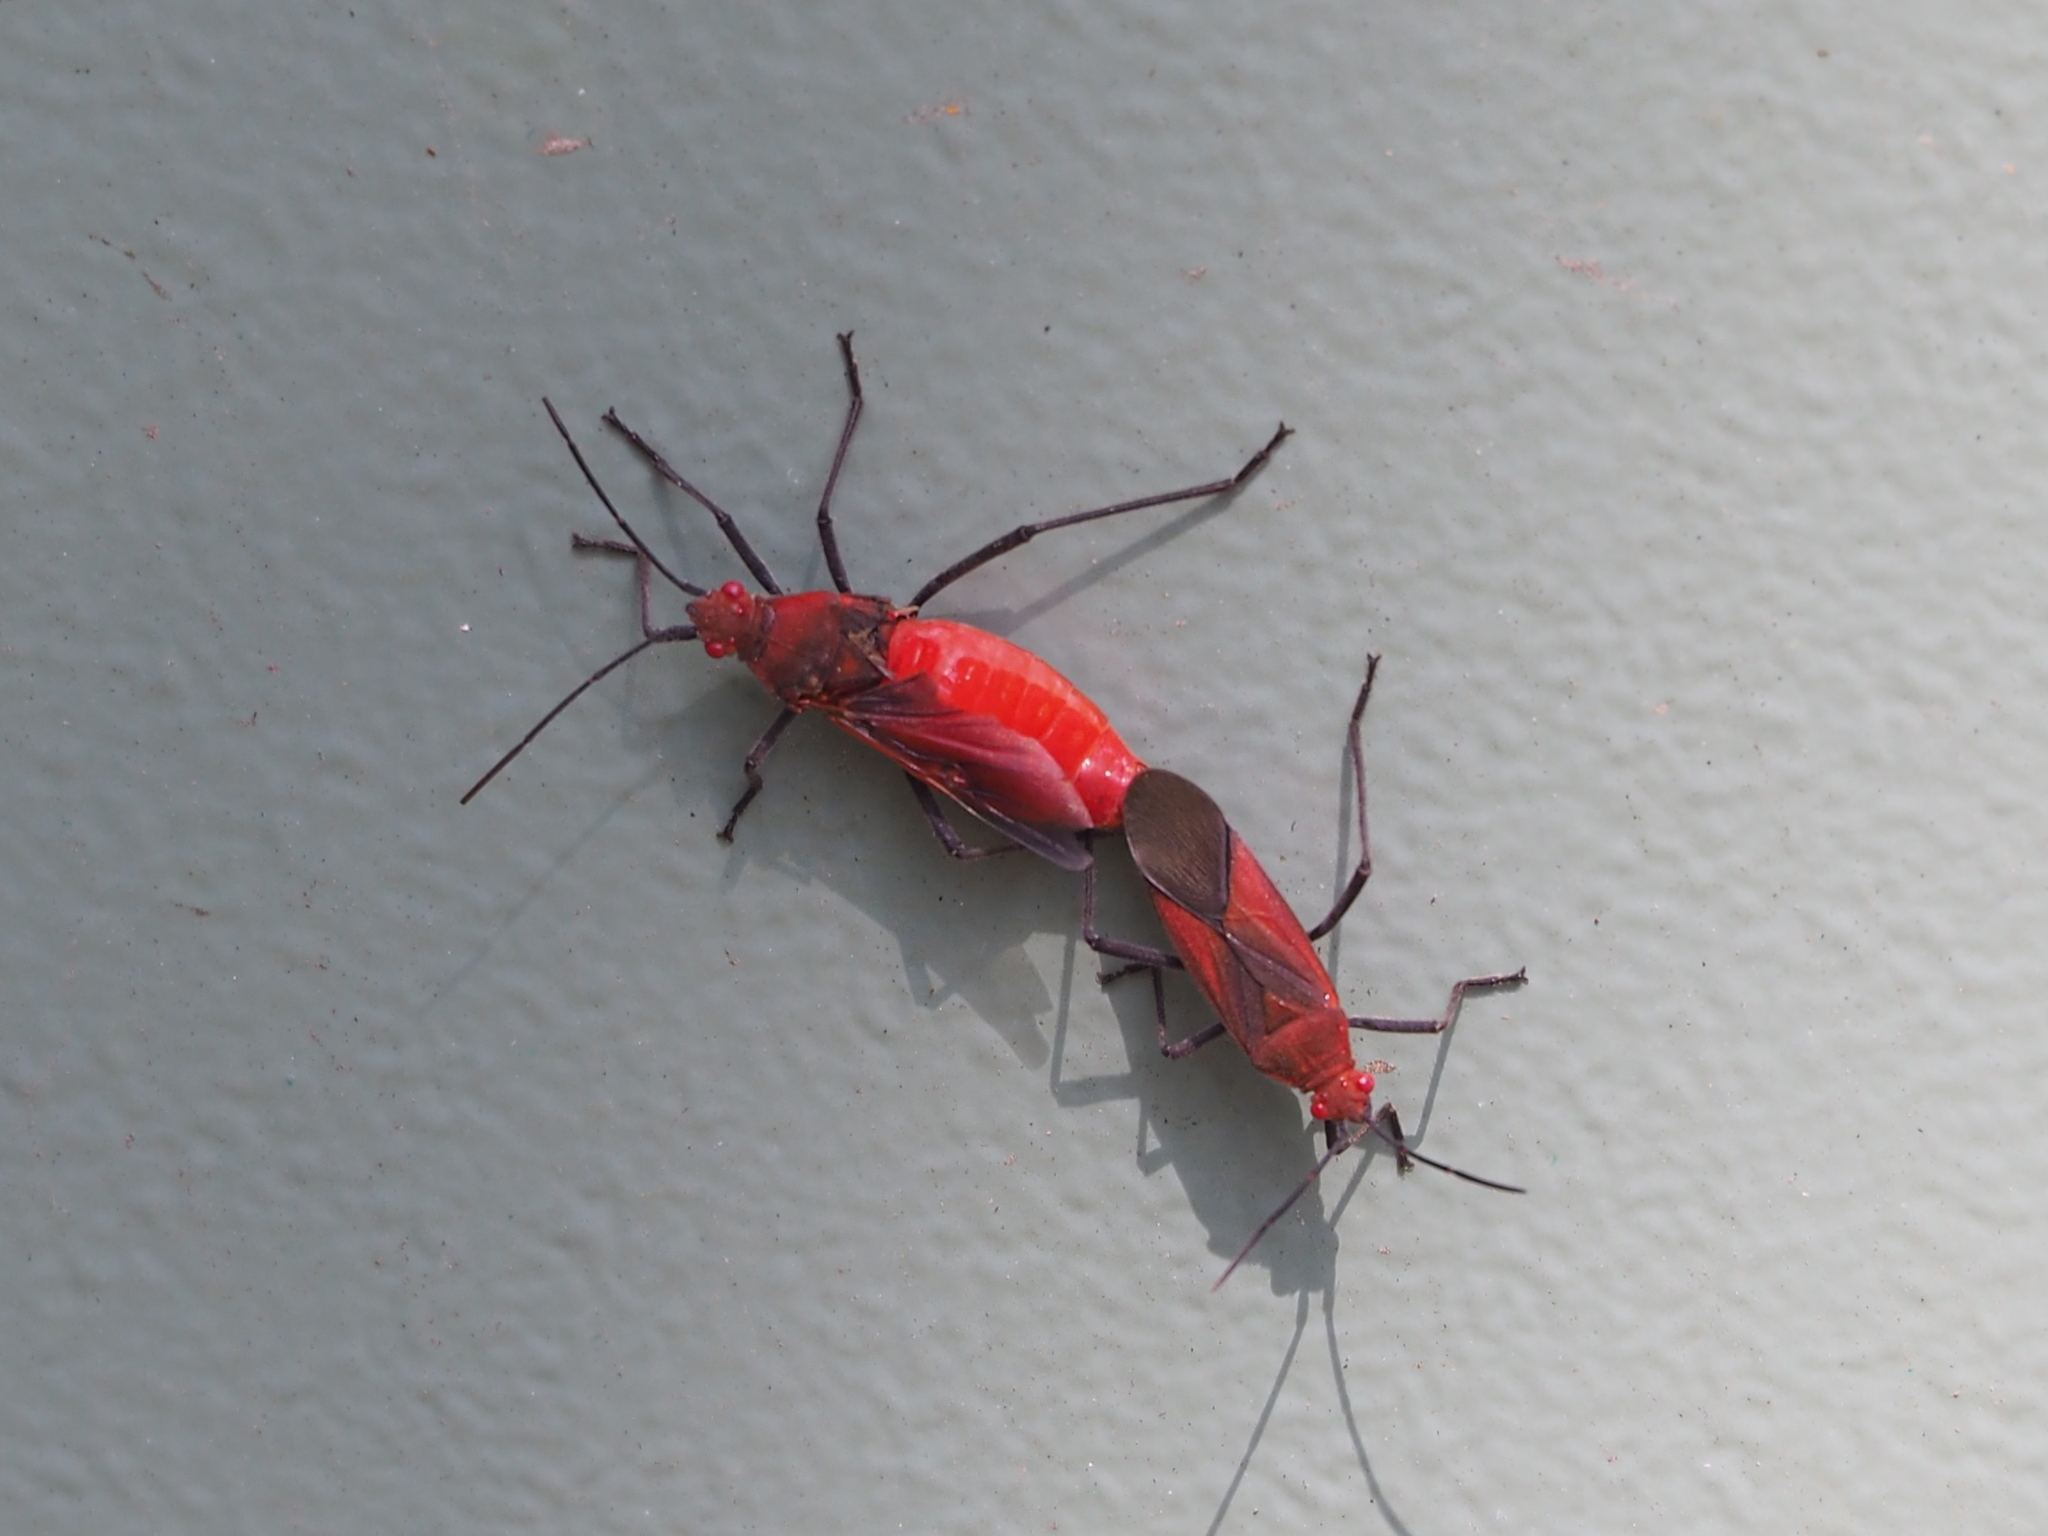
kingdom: Animalia
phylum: Arthropoda
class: Insecta
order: Hemiptera
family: Rhopalidae
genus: Leptocoris
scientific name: Leptocoris vicinus
